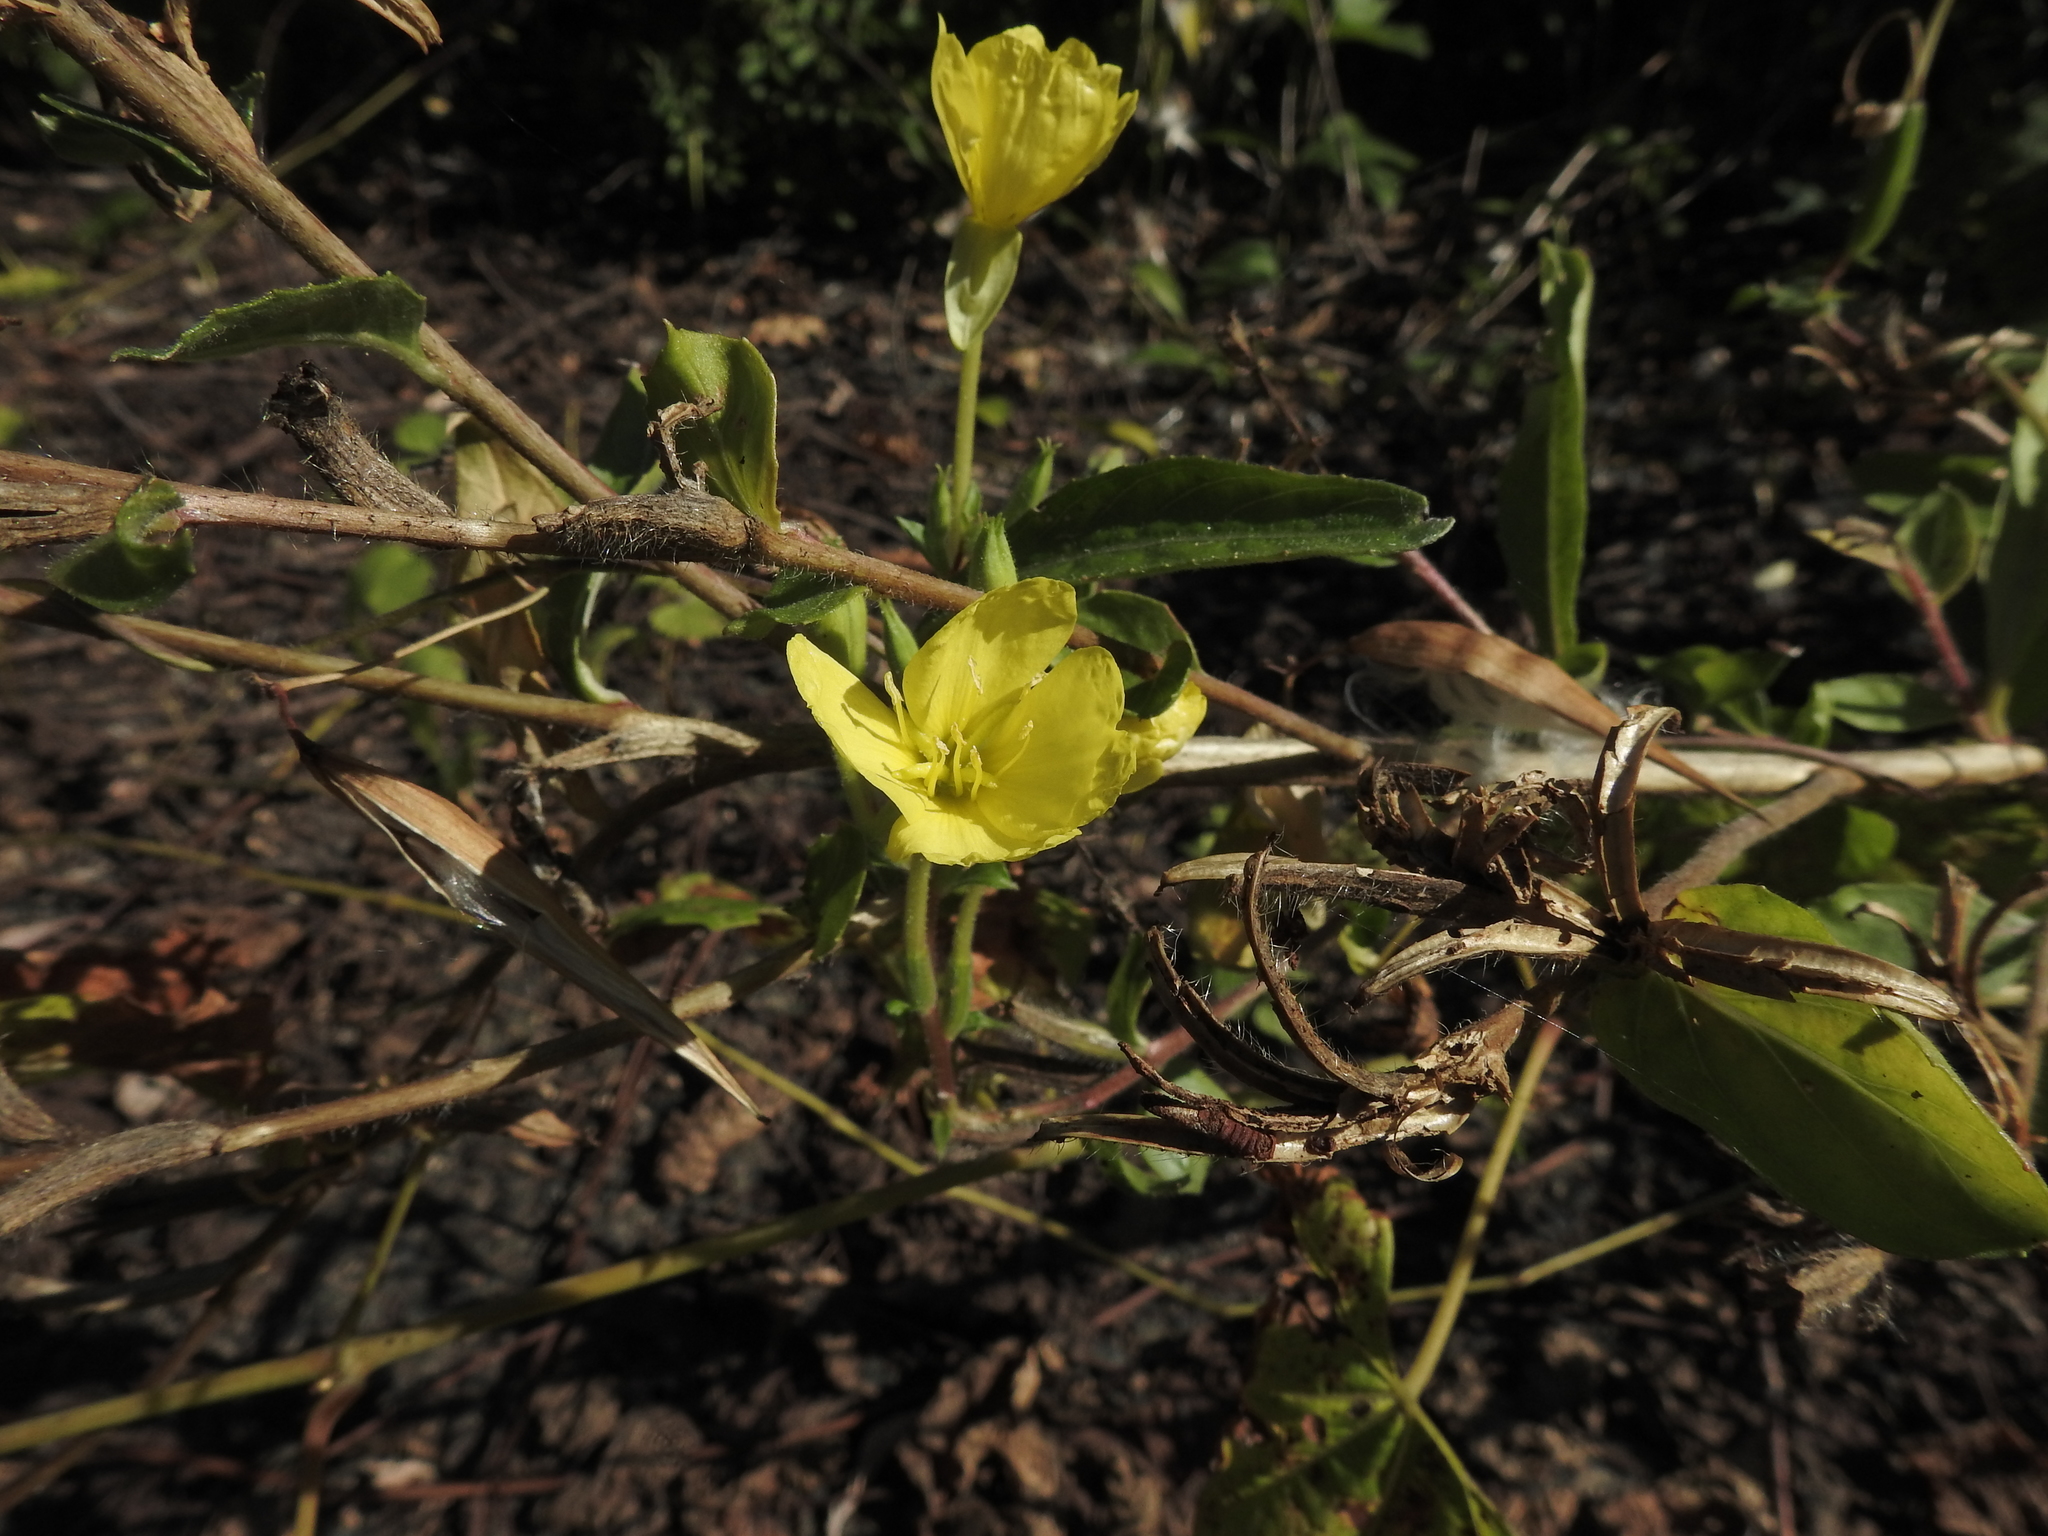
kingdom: Plantae
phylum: Tracheophyta
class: Magnoliopsida
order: Myrtales
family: Onagraceae
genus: Oenothera
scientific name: Oenothera biennis
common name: Common evening-primrose
